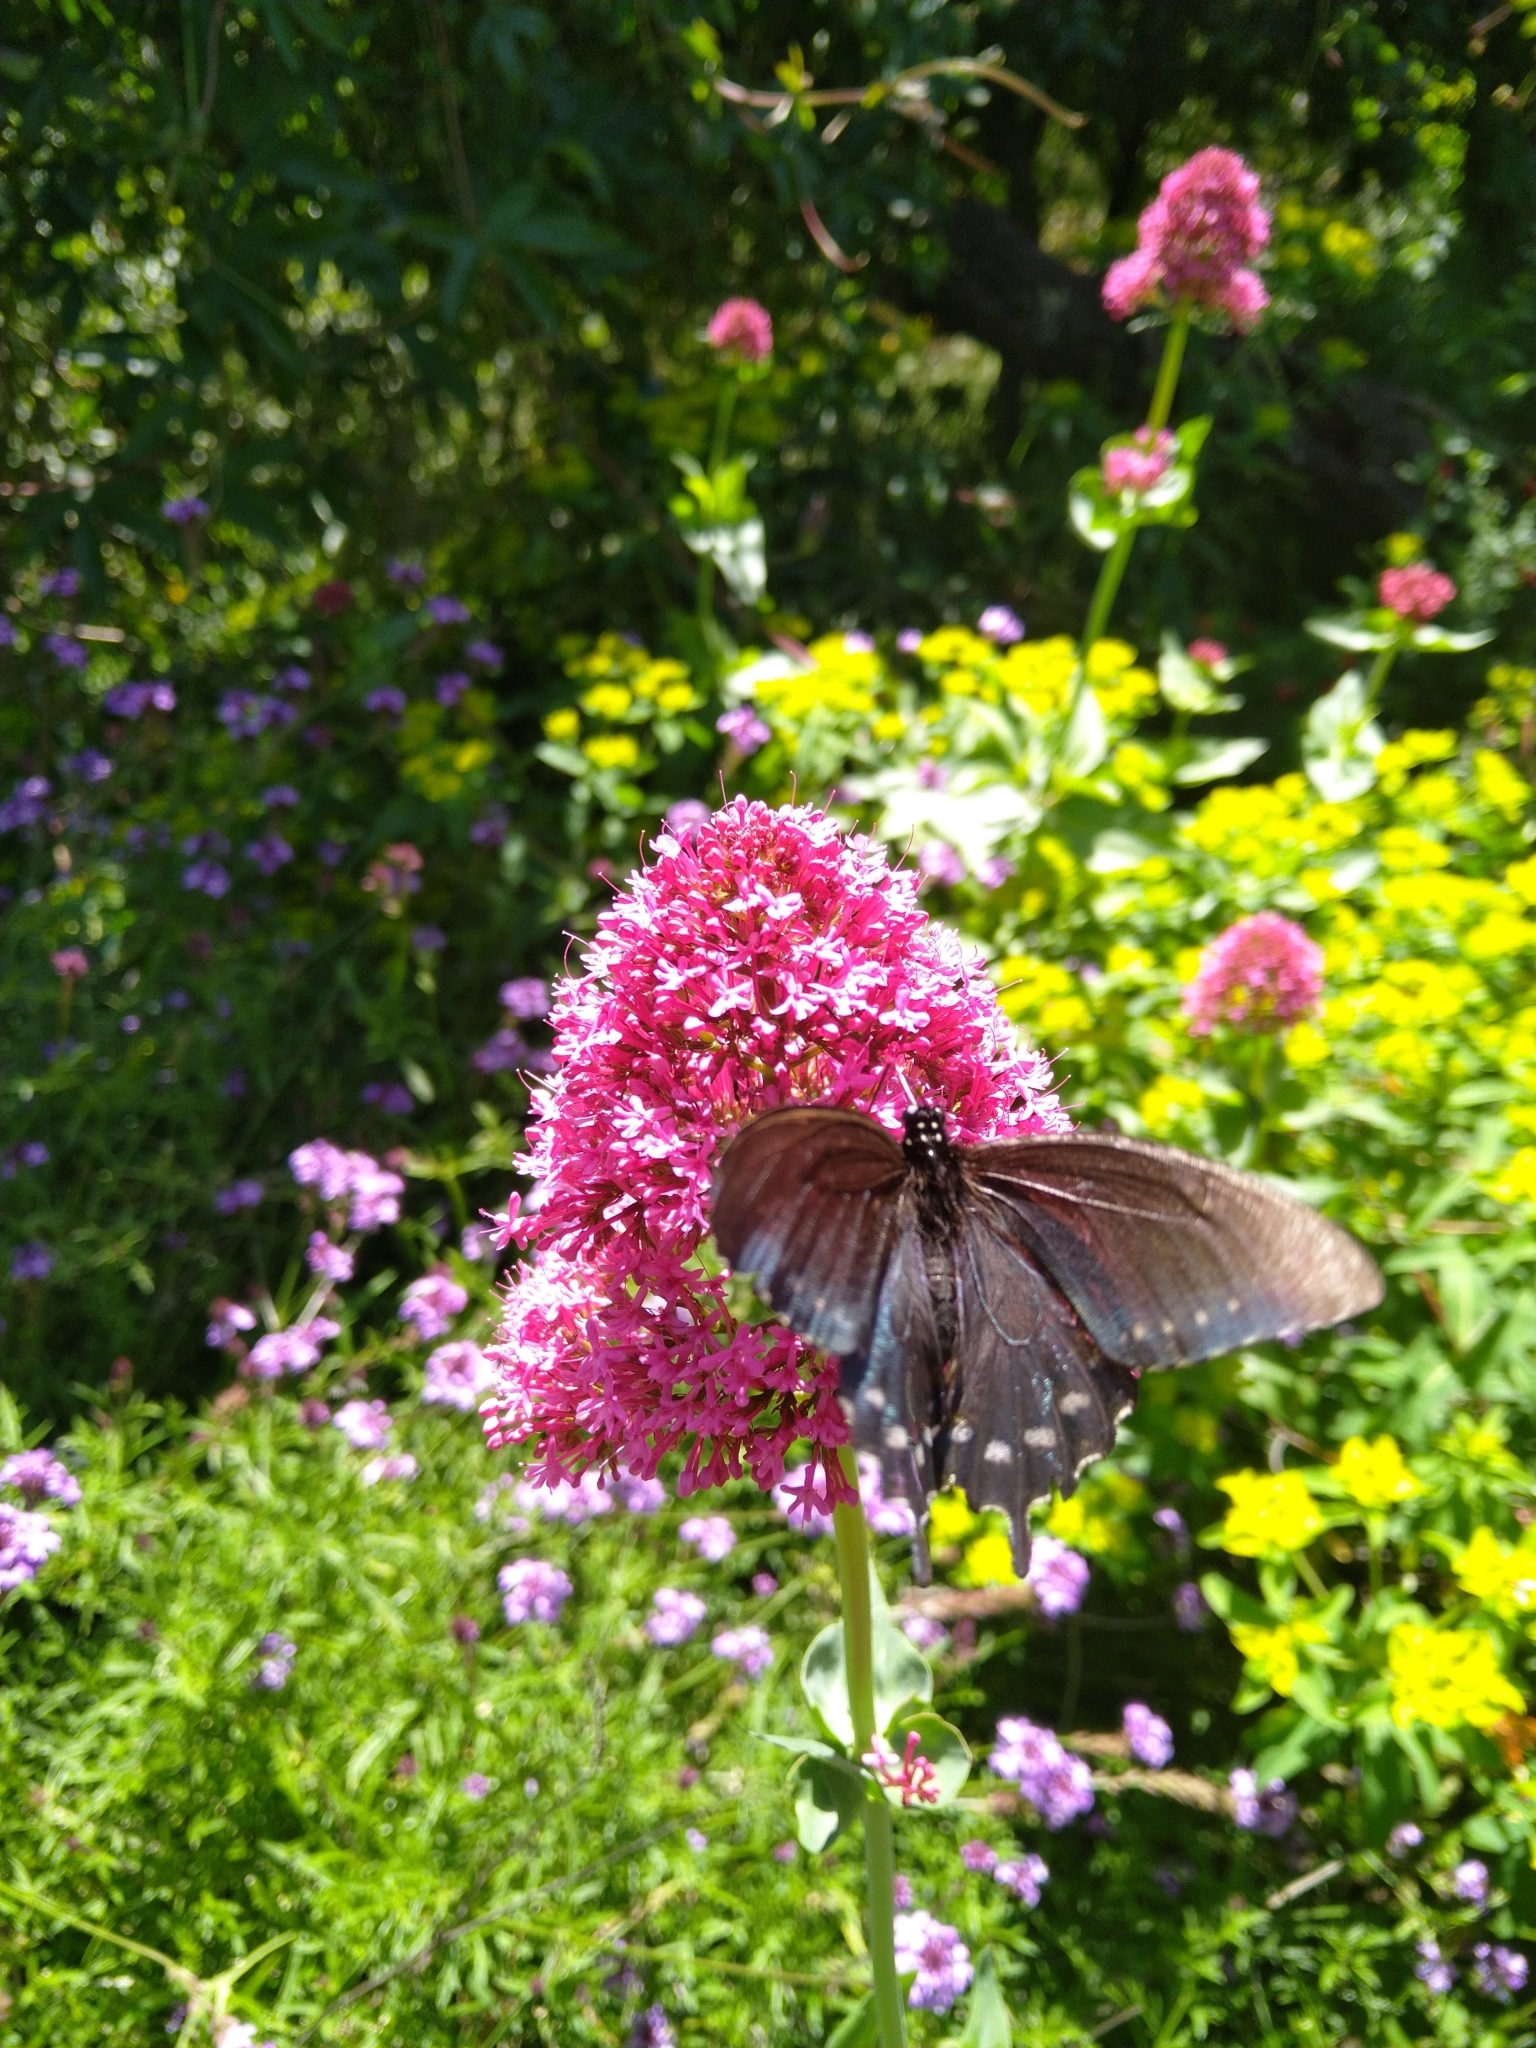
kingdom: Animalia
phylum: Arthropoda
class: Insecta
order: Lepidoptera
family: Papilionidae
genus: Battus
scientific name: Battus philenor
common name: Pipevine swallowtail
